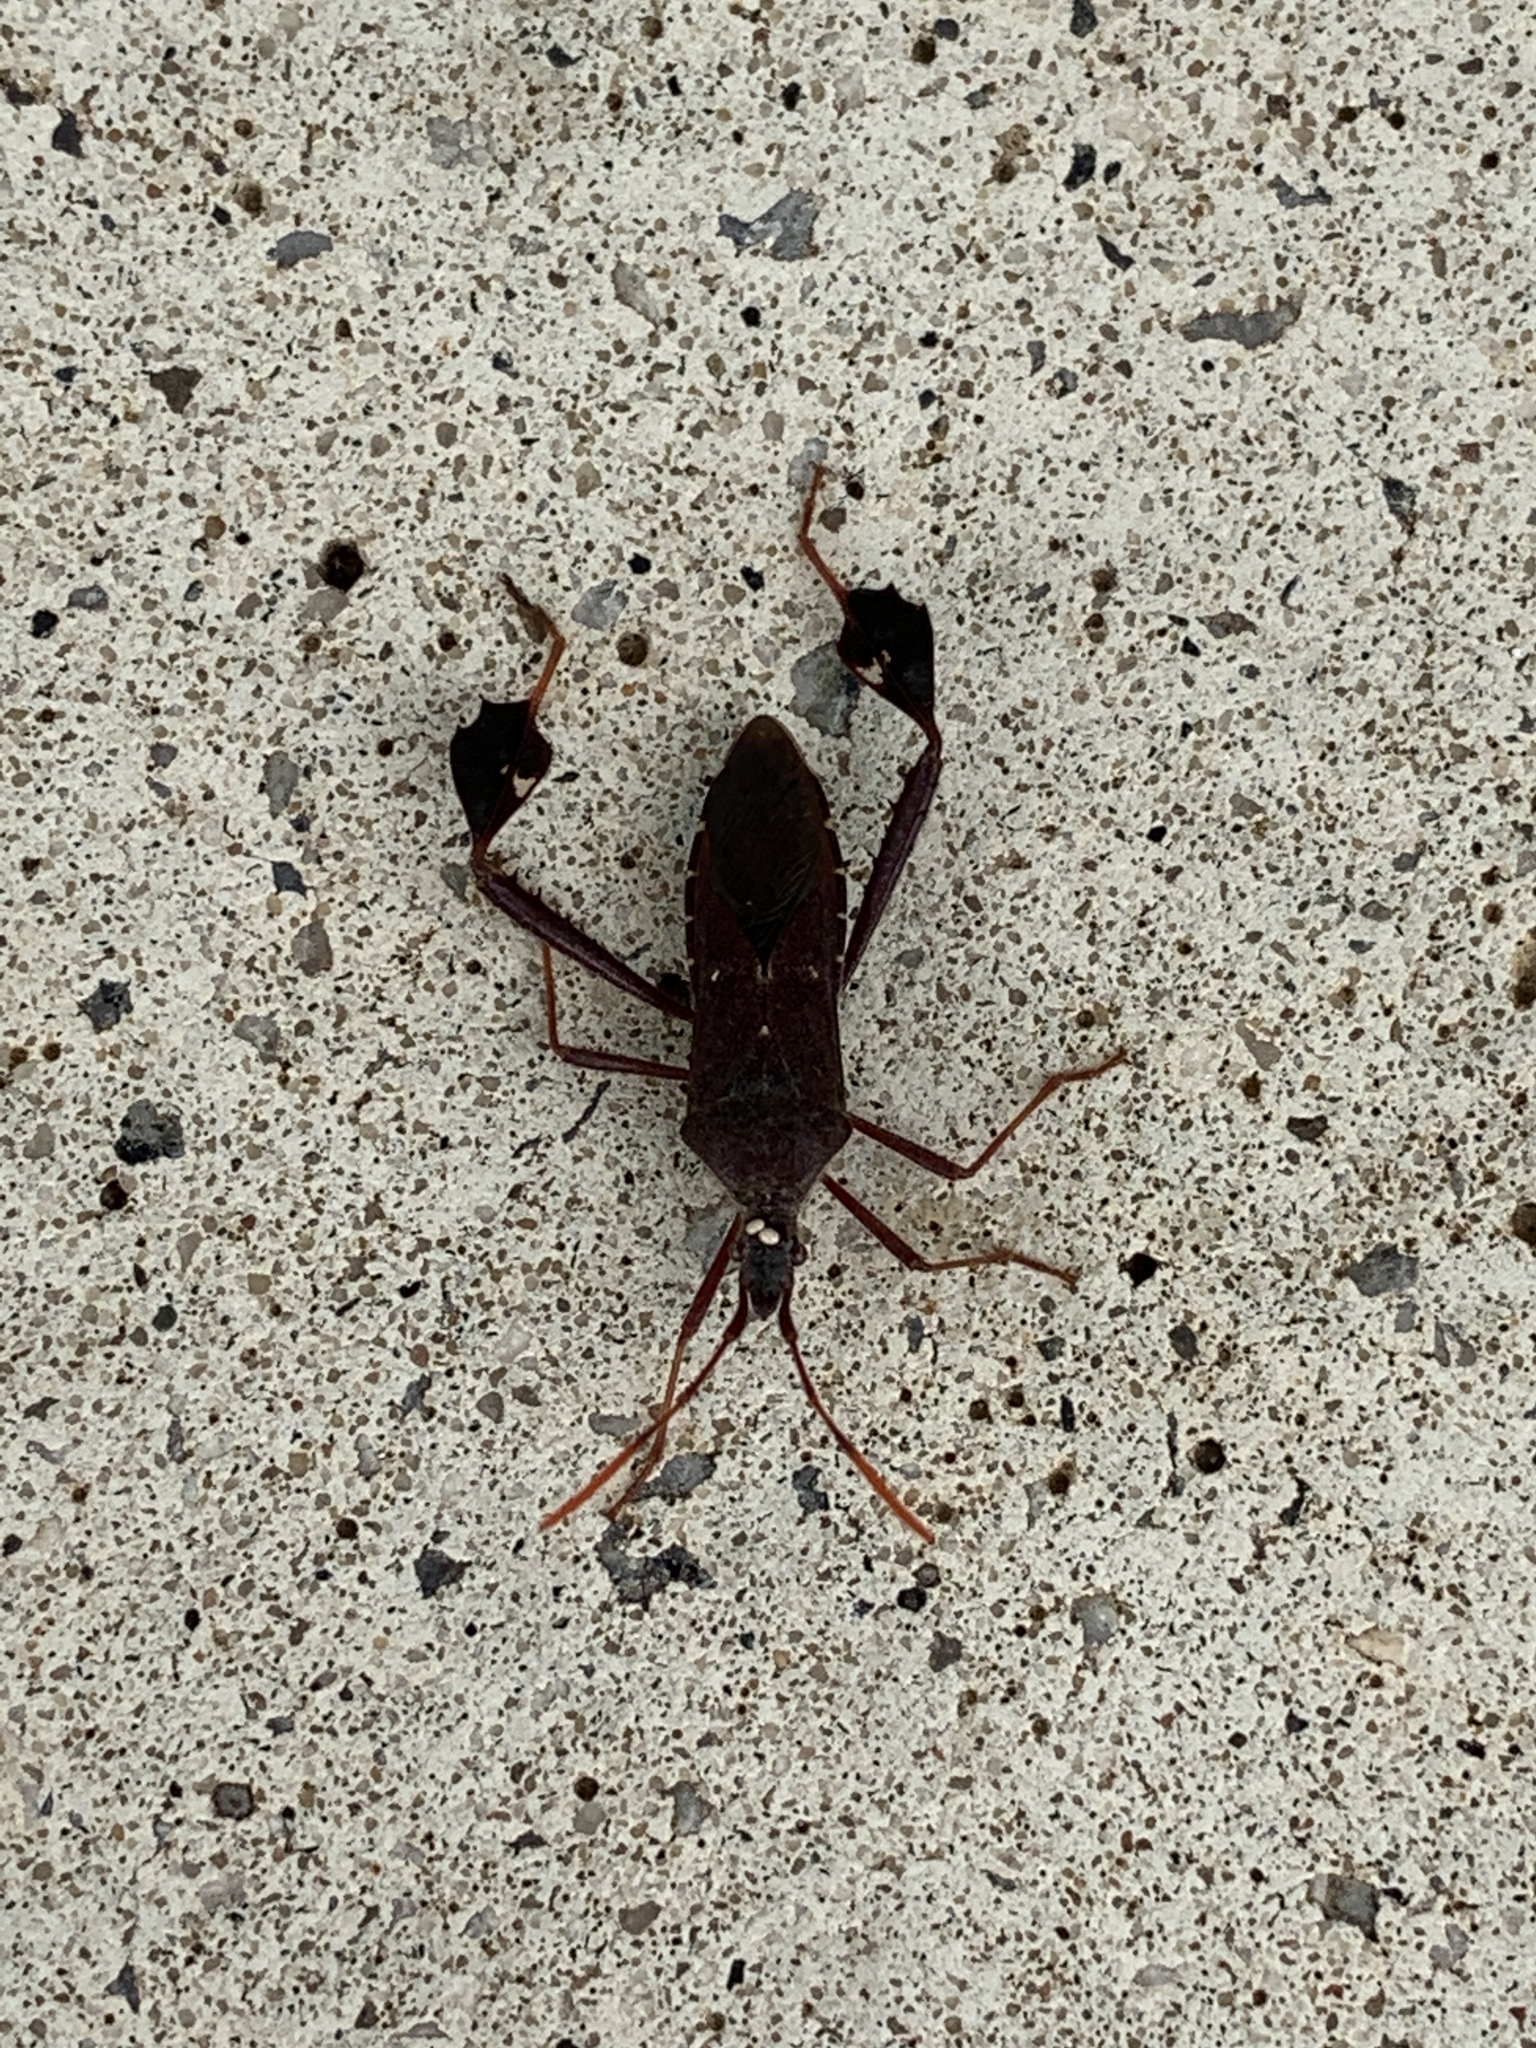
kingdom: Animalia
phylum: Arthropoda
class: Insecta
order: Hemiptera
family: Coreidae
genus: Leptoglossus
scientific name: Leptoglossus oppositus
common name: Northern leaf-footed bug
